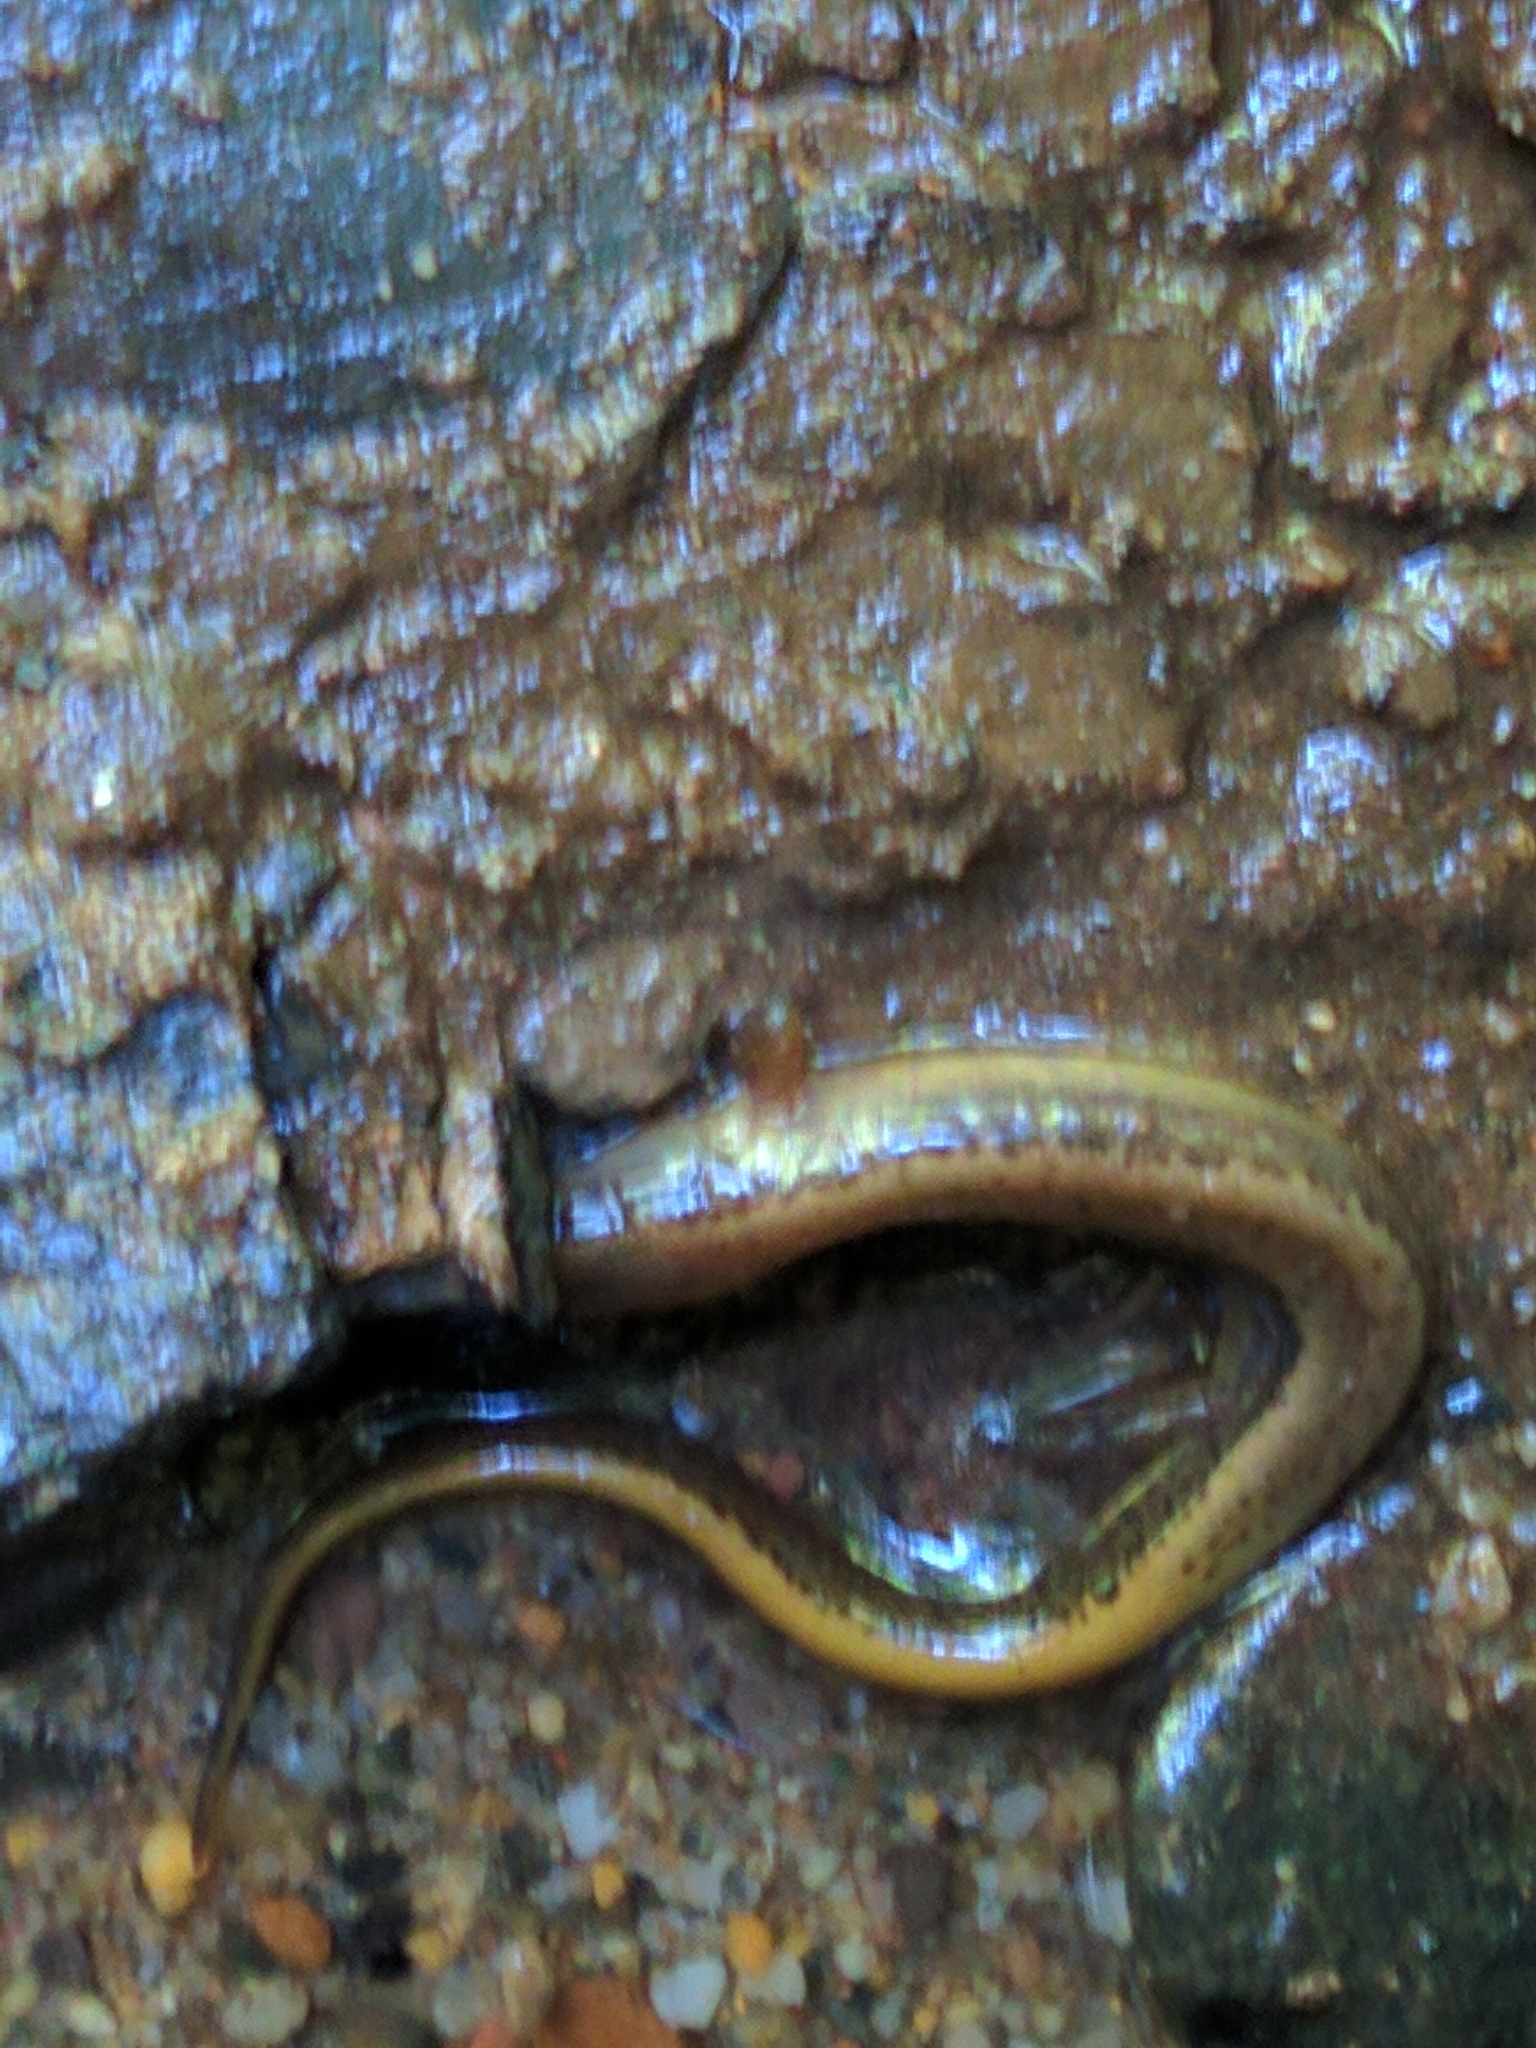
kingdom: Animalia
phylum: Chordata
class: Amphibia
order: Caudata
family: Plethodontidae
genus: Eurycea
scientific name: Eurycea bislineata
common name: Northern two-lined salamander
